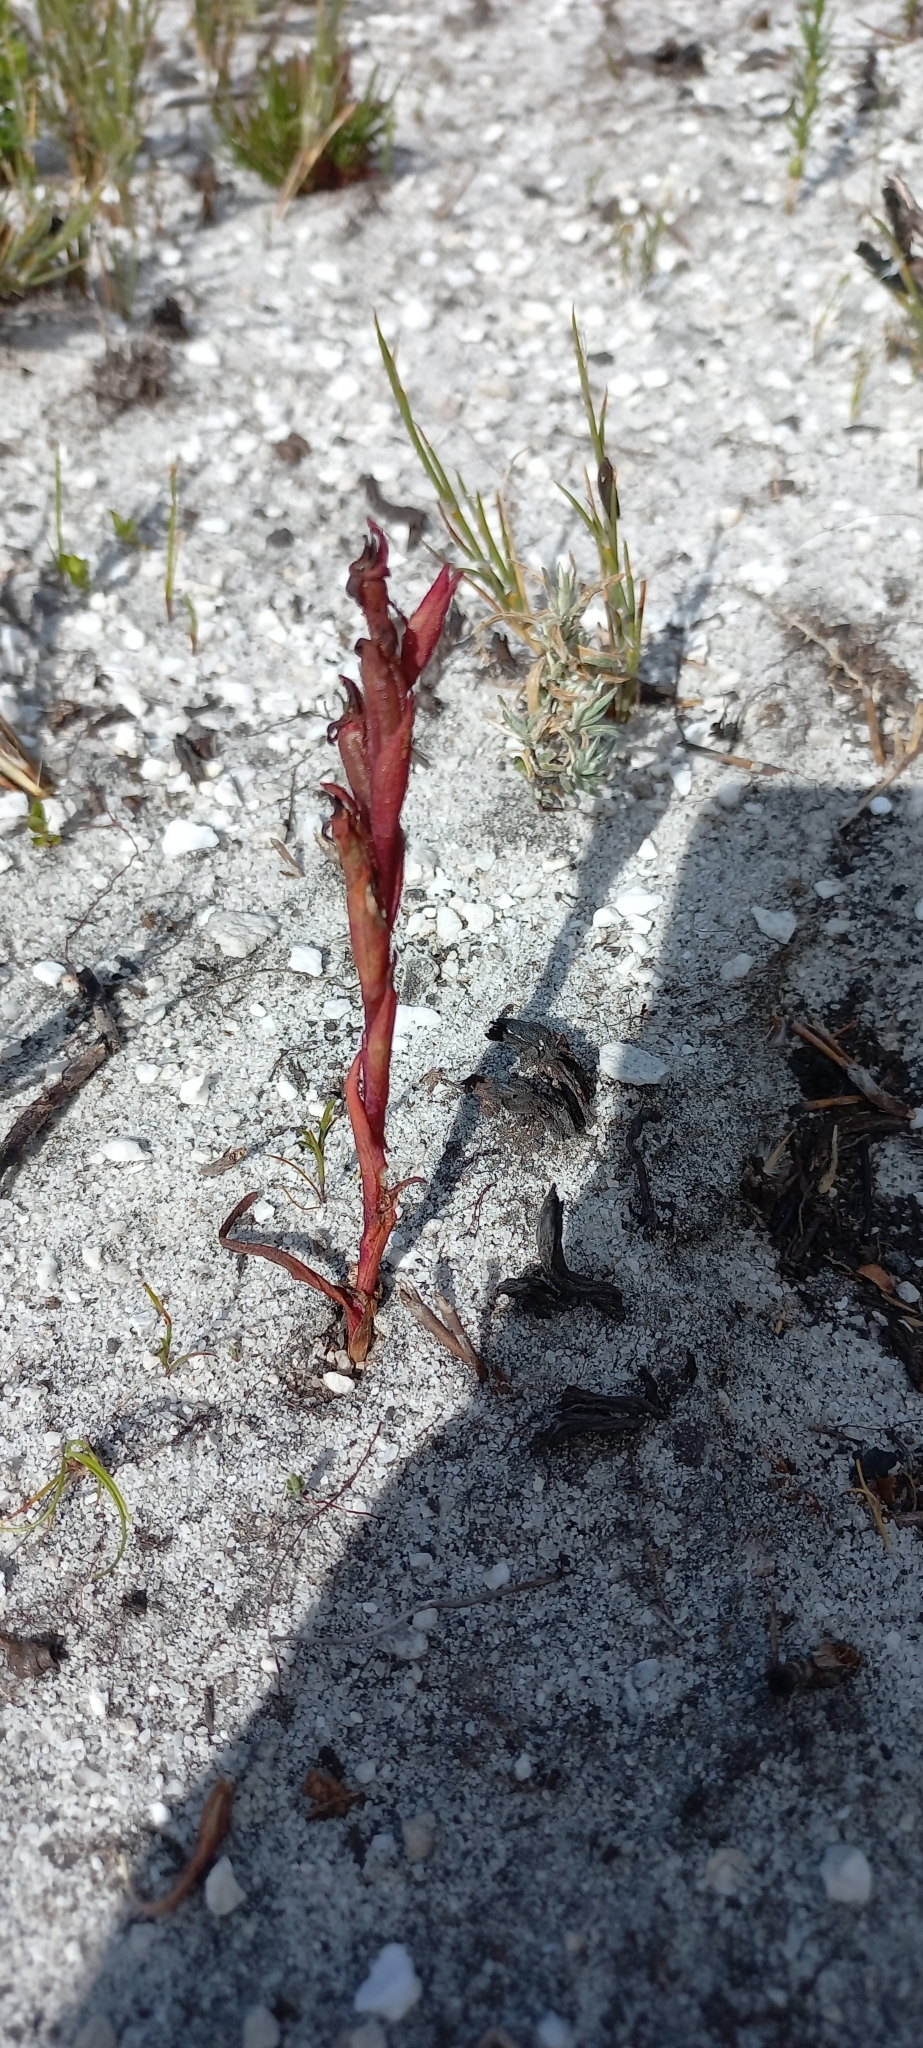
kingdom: Plantae
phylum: Tracheophyta
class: Liliopsida
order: Asparagales
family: Orchidaceae
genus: Disa
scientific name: Disa atrorubens
